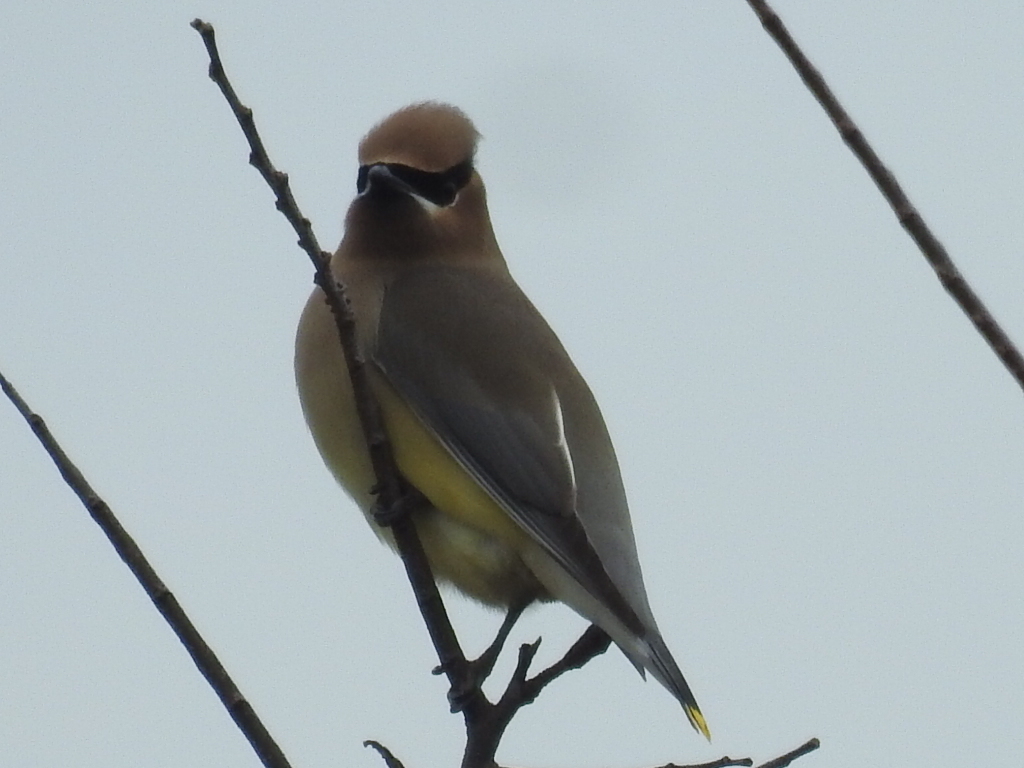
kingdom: Animalia
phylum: Chordata
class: Aves
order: Passeriformes
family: Bombycillidae
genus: Bombycilla
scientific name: Bombycilla cedrorum
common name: Cedar waxwing
